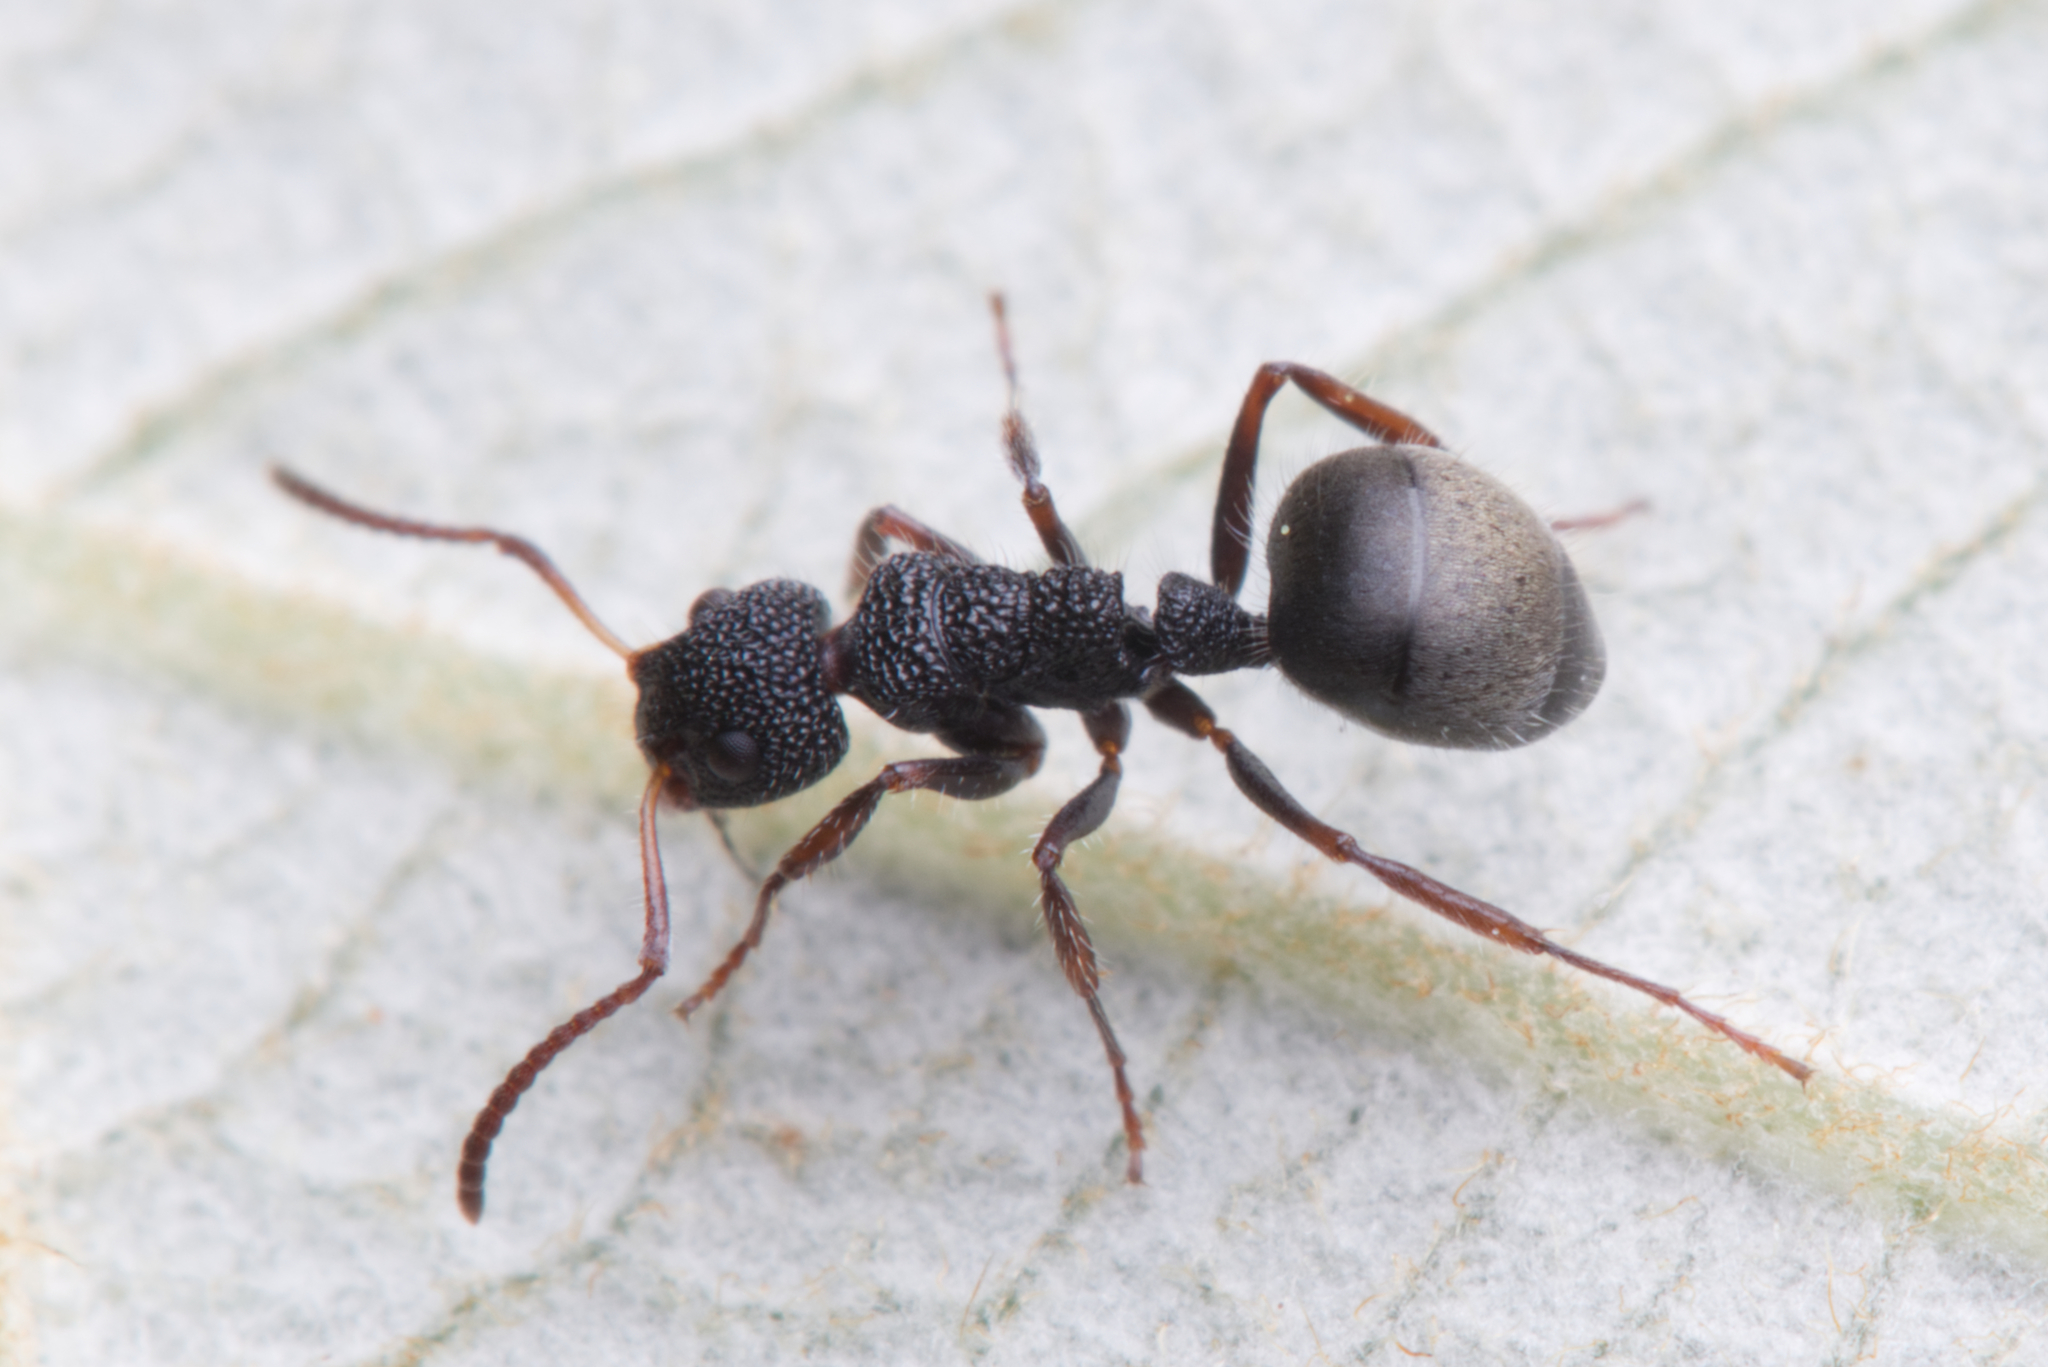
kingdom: Animalia
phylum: Arthropoda
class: Insecta
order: Hymenoptera
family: Formicidae
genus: Dolichoderus
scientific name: Dolichoderus scrobiculatus
